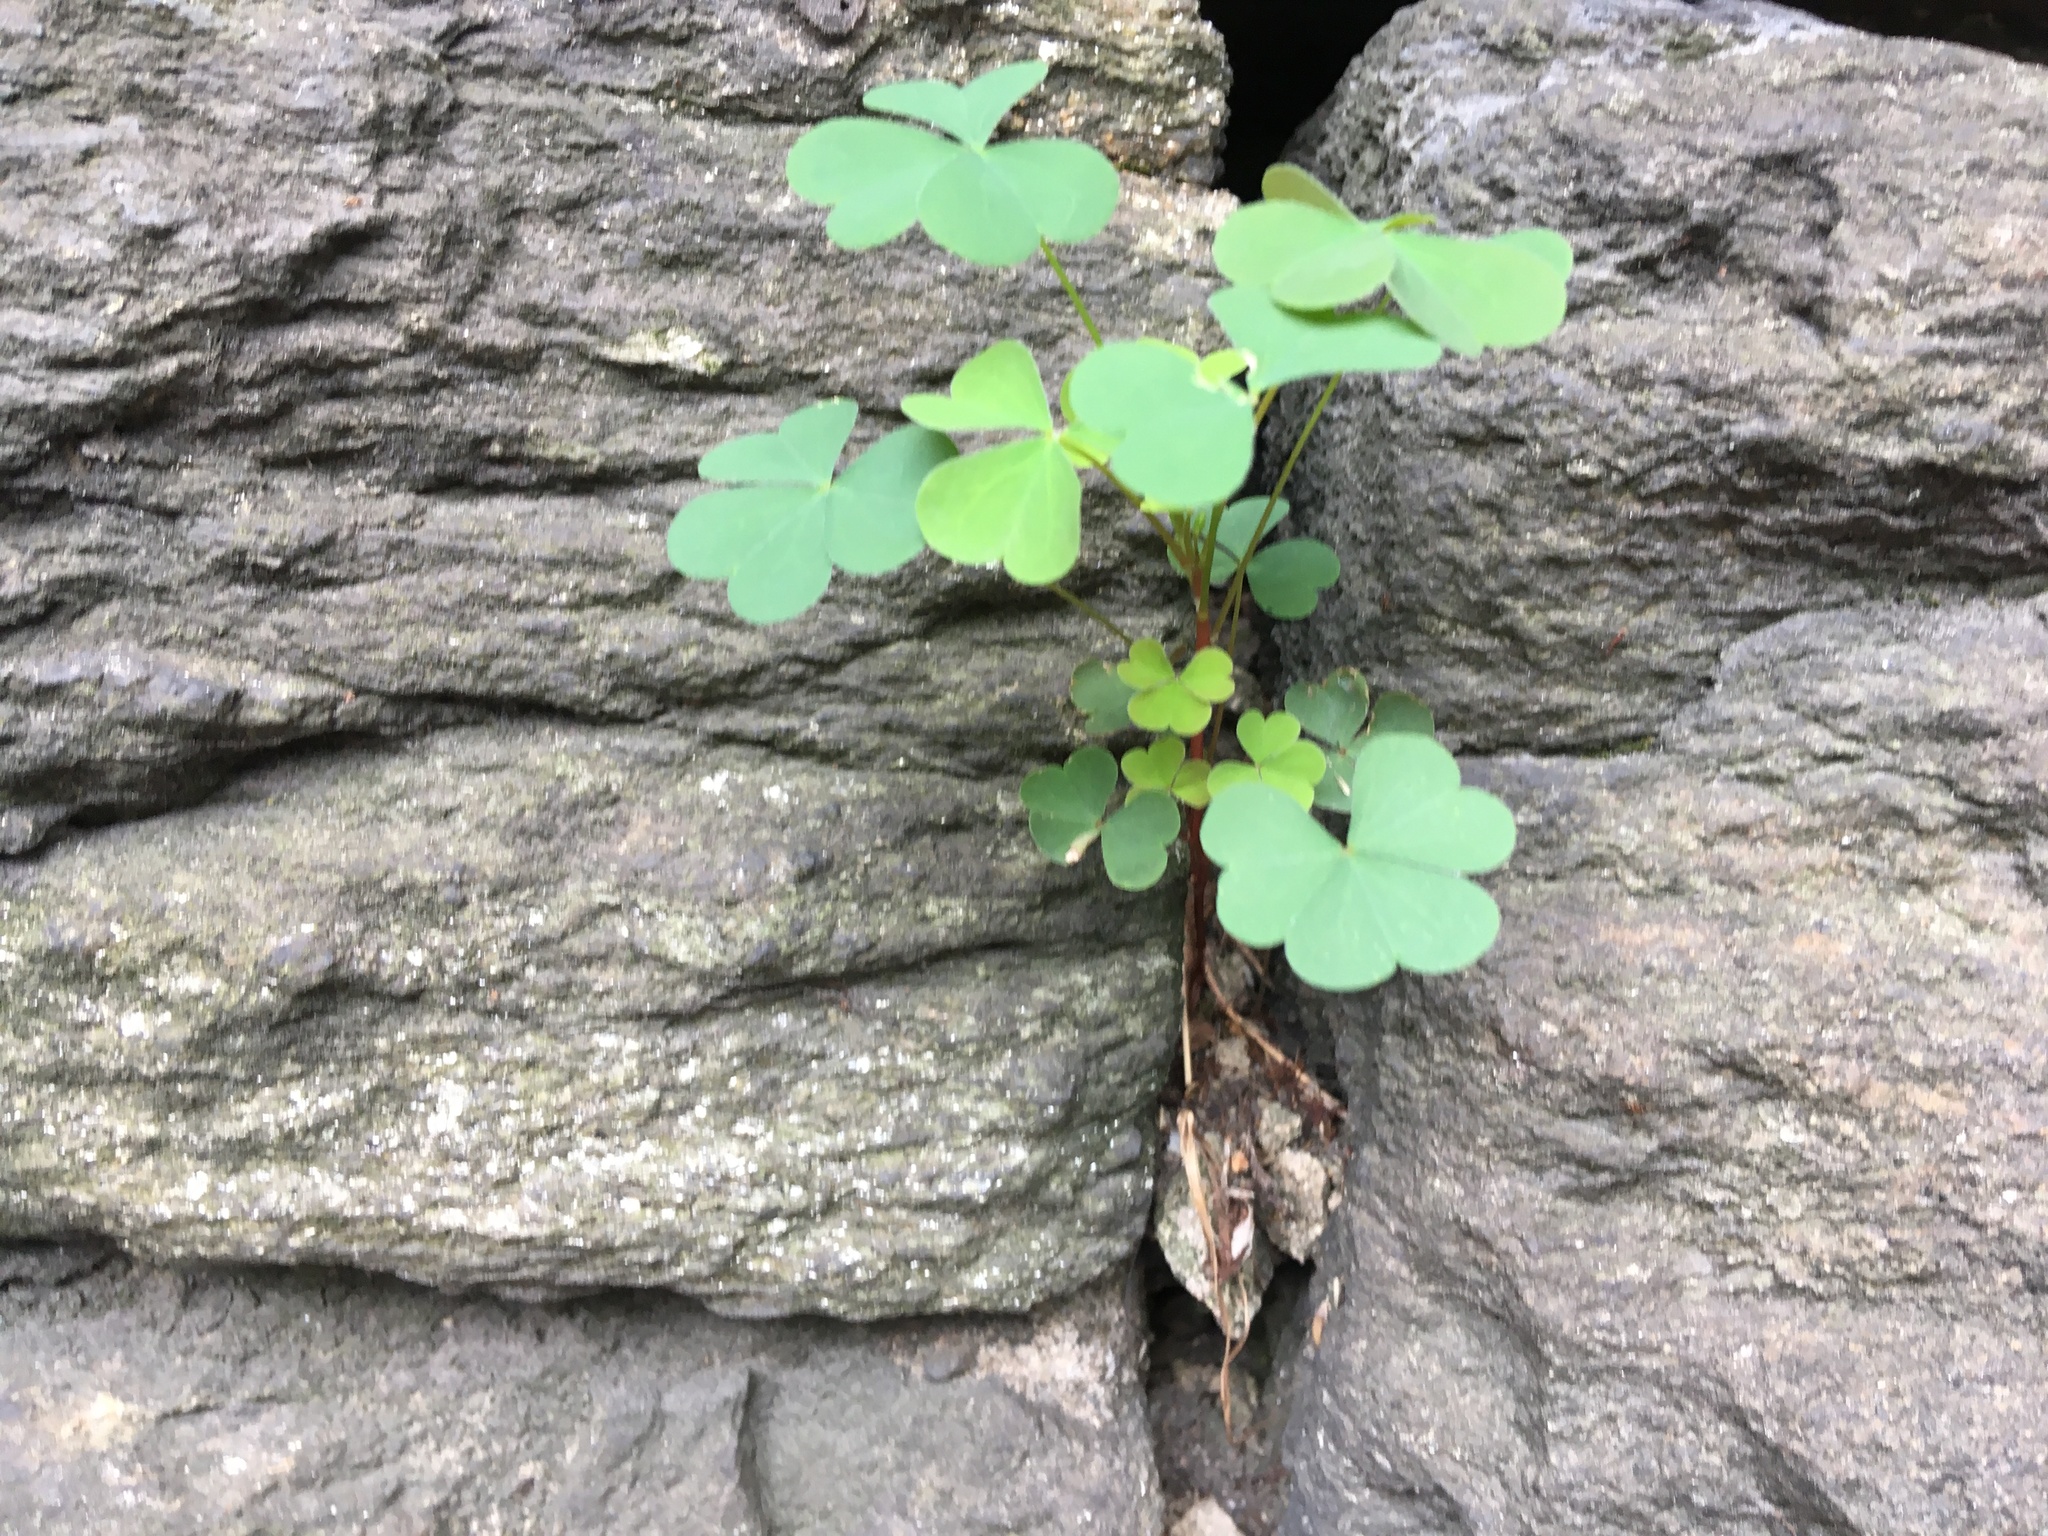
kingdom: Plantae
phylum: Tracheophyta
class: Magnoliopsida
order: Oxalidales
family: Oxalidaceae
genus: Oxalis
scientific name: Oxalis corniculata
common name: Procumbent yellow-sorrel
